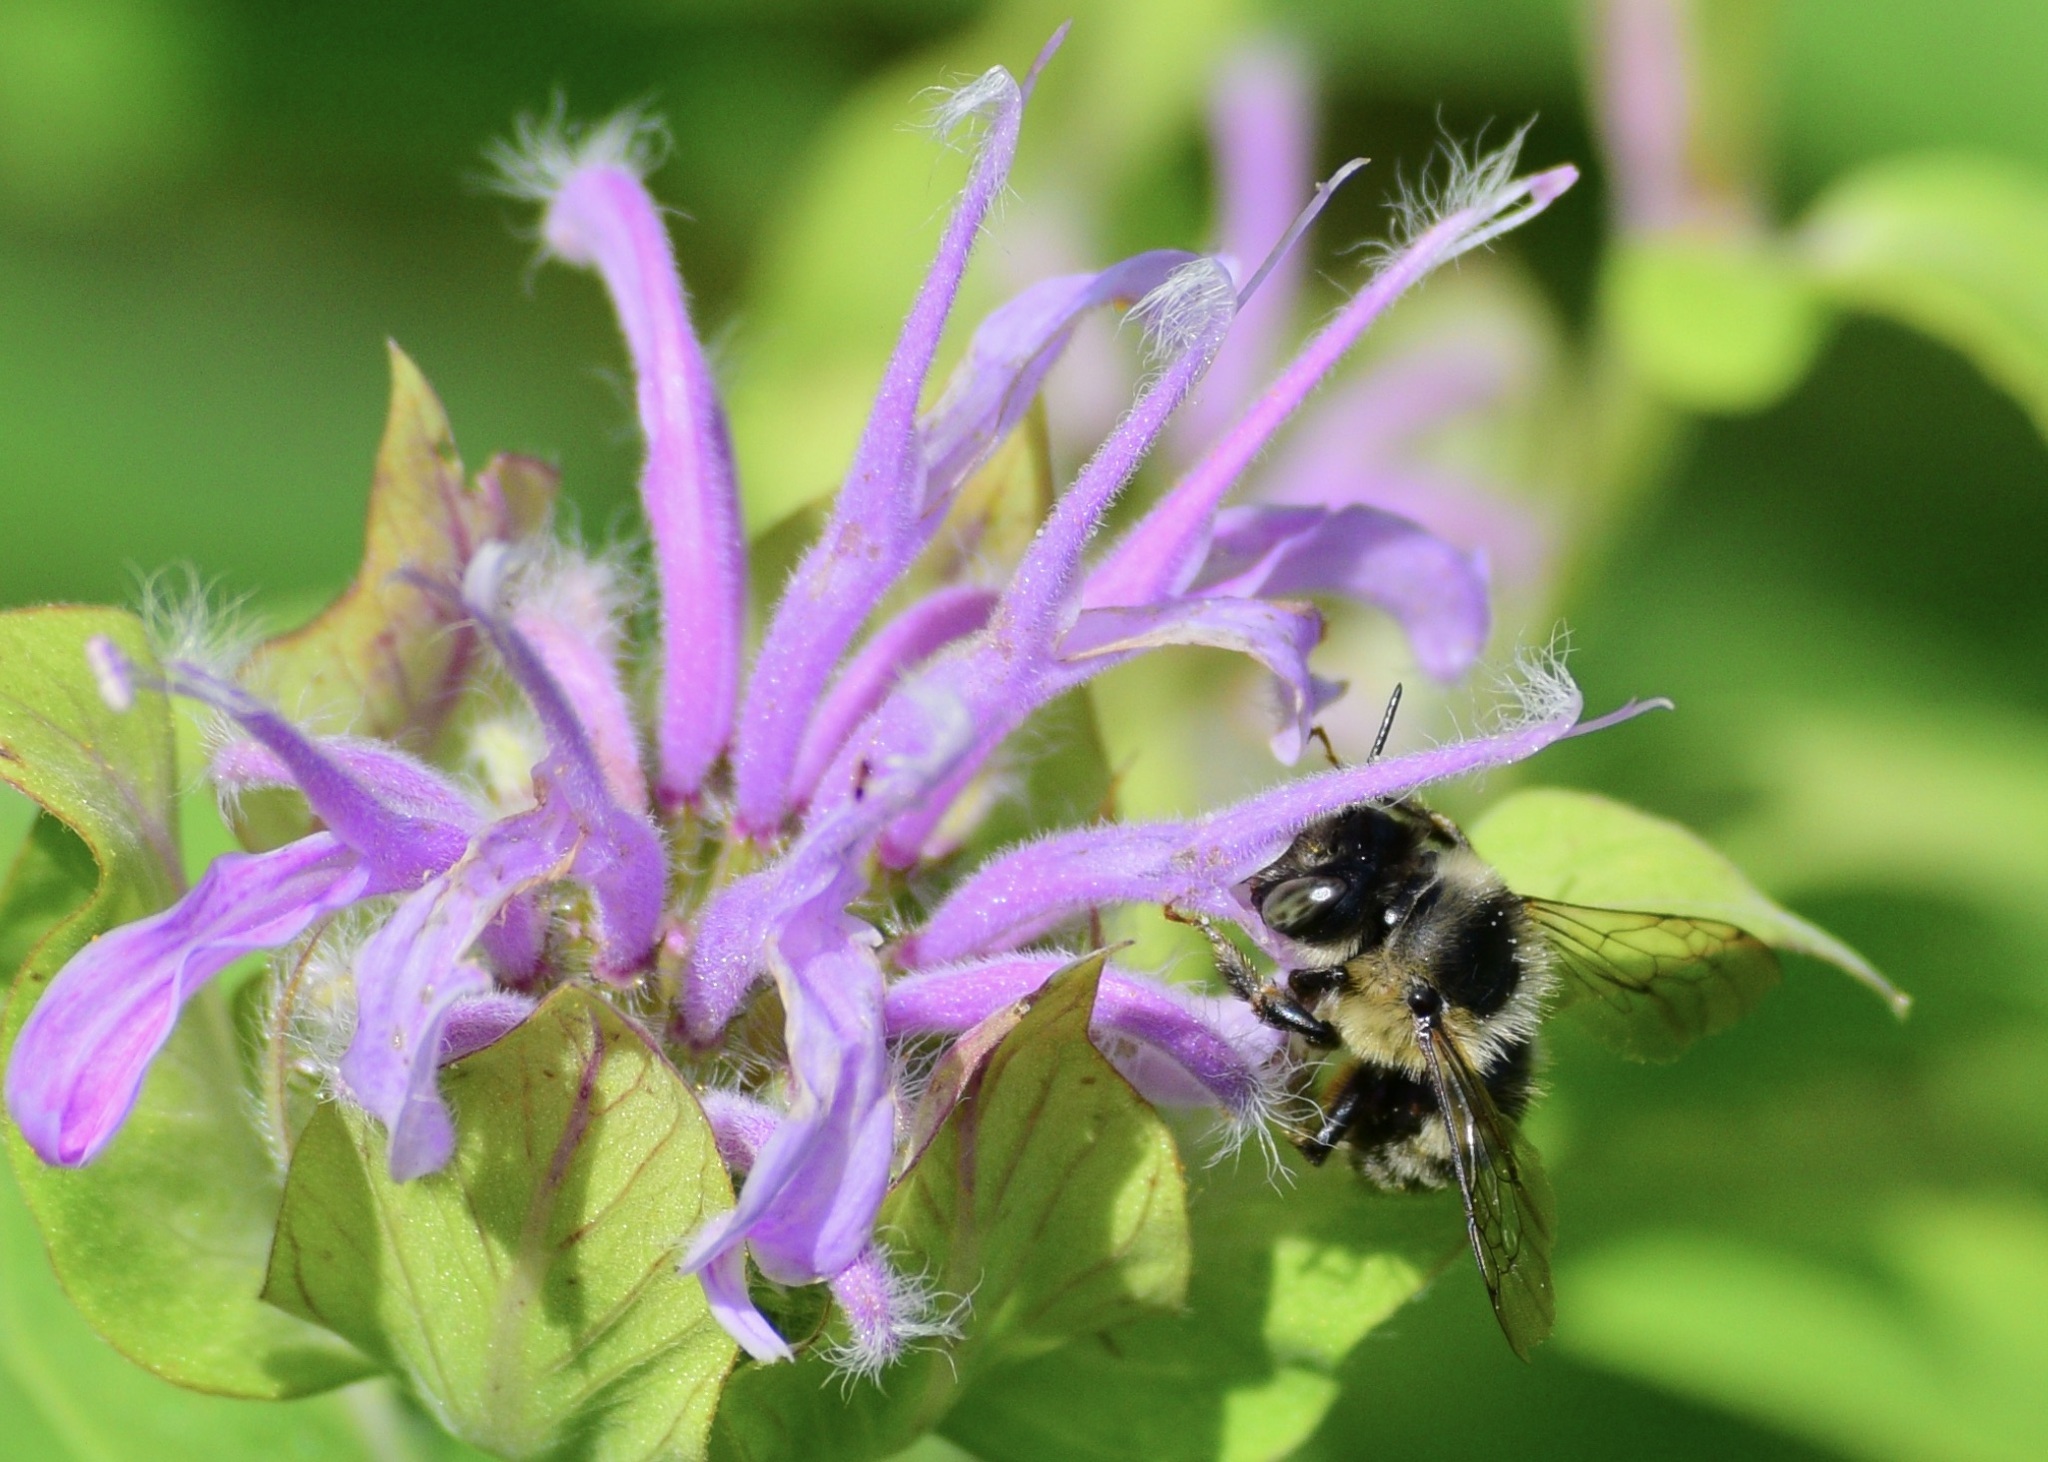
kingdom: Animalia
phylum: Arthropoda
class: Insecta
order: Hymenoptera
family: Apidae
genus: Anthophora
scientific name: Anthophora terminalis
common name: Orange-tipped wood-digger bee
